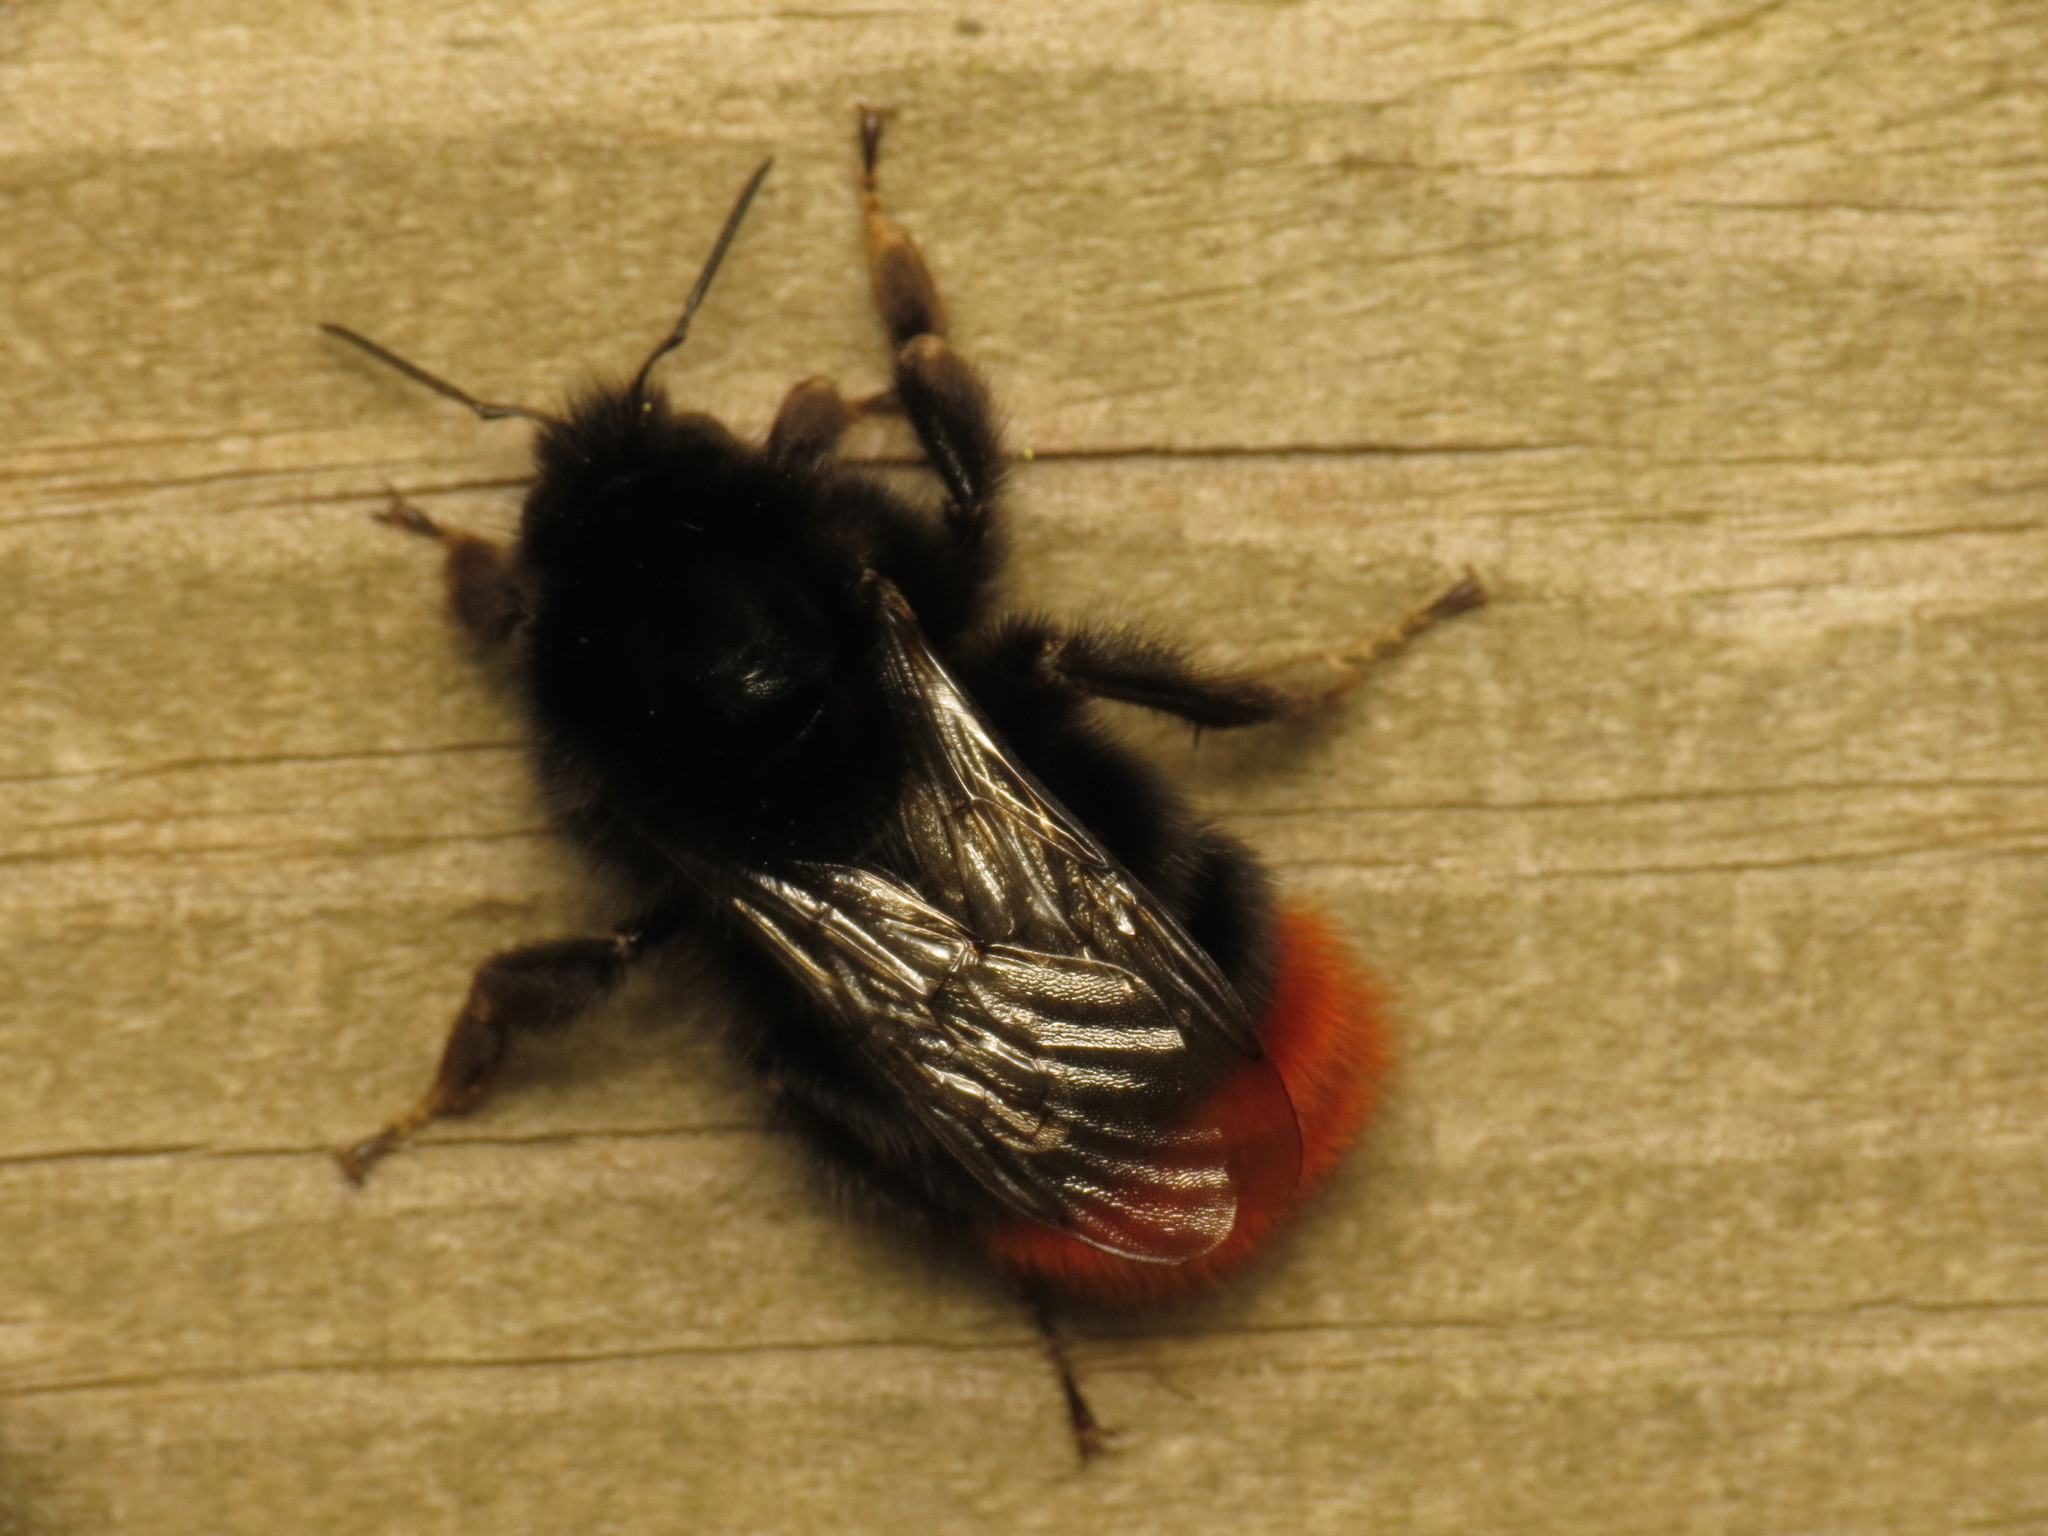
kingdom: Animalia
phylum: Arthropoda
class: Insecta
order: Hymenoptera
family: Apidae
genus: Bombus
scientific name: Bombus lapidarius
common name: Large red-tailed humble-bee
